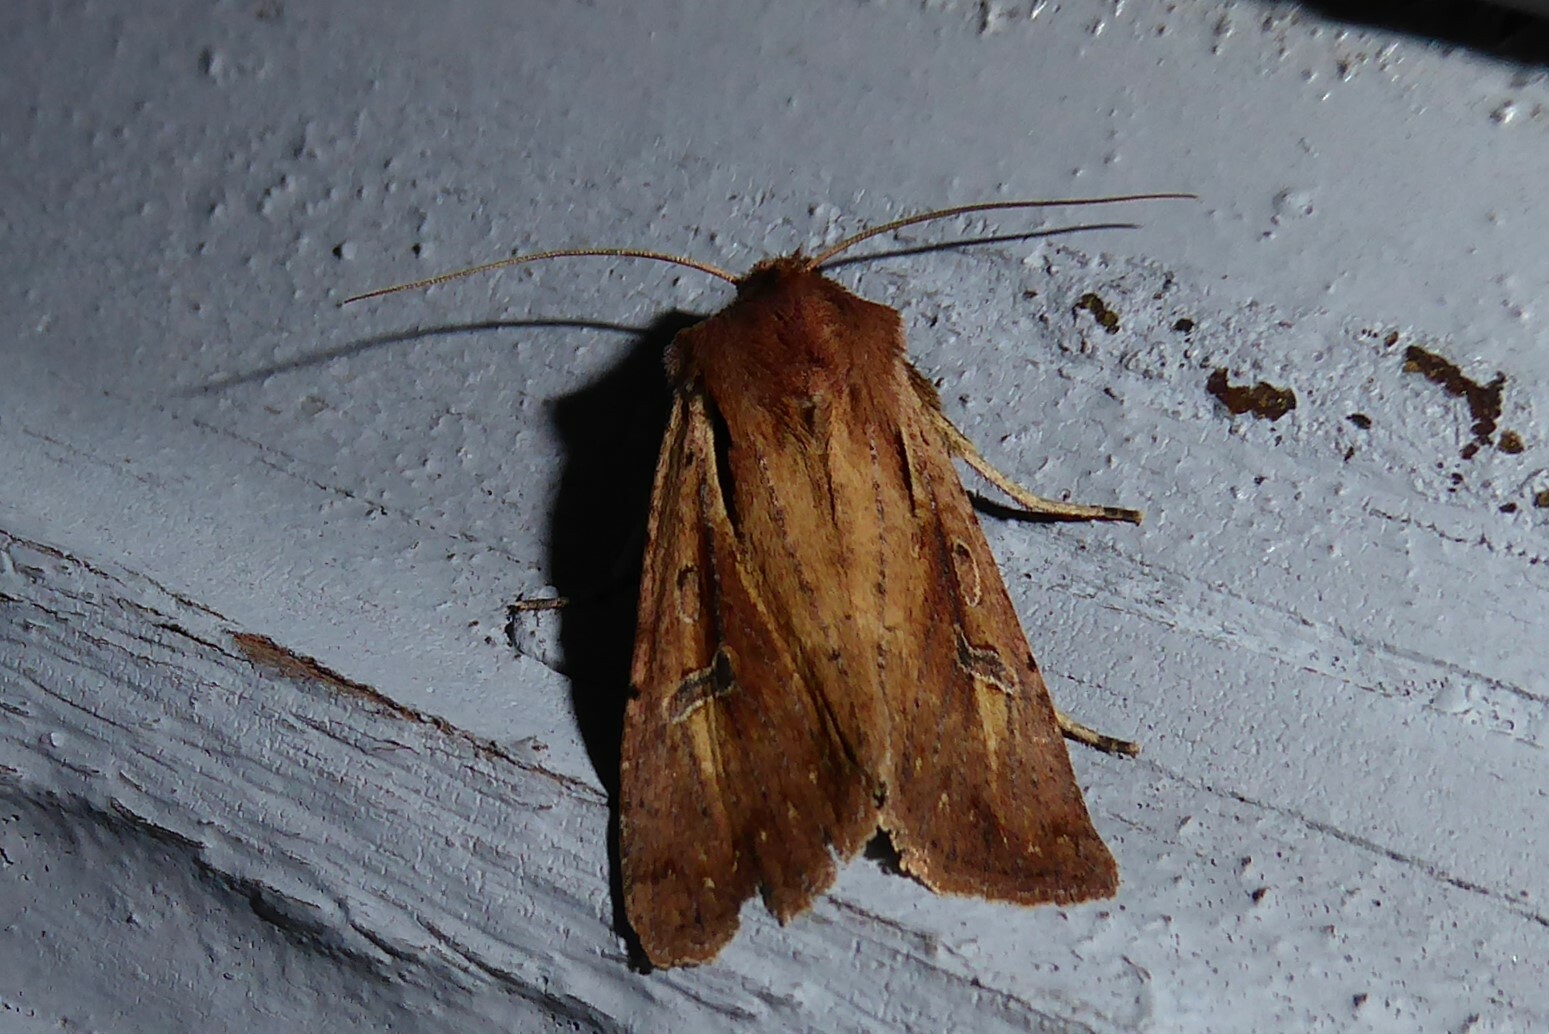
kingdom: Animalia
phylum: Arthropoda
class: Insecta
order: Lepidoptera
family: Noctuidae
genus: Ichneutica
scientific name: Ichneutica atristriga
